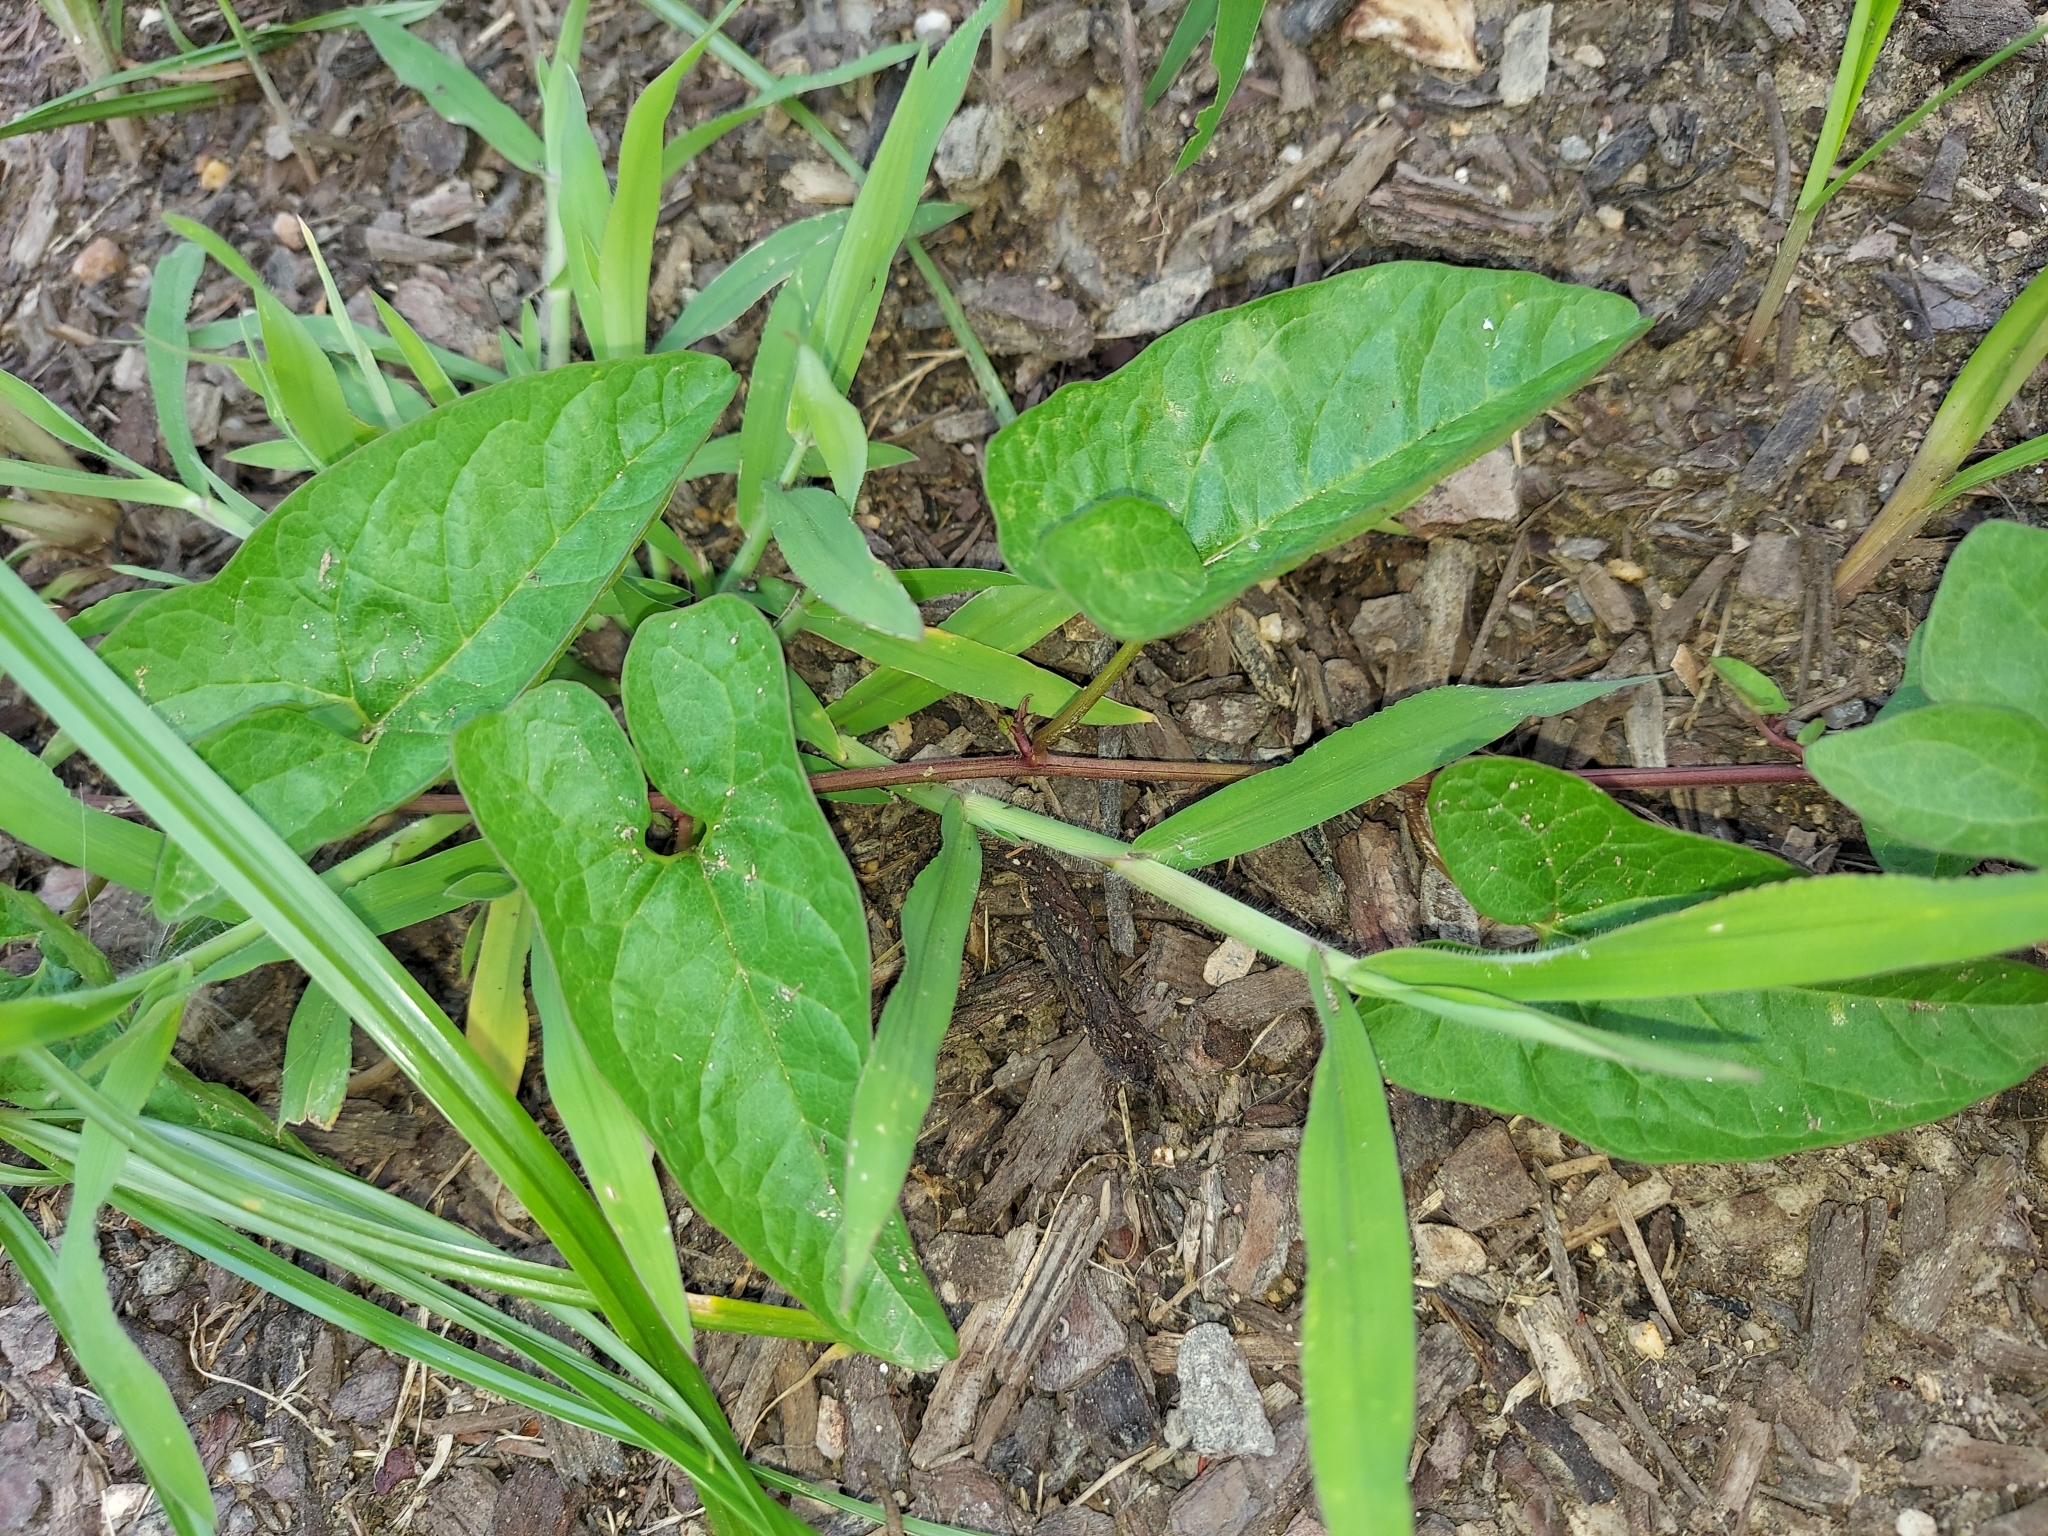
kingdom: Plantae
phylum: Tracheophyta
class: Magnoliopsida
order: Solanales
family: Convolvulaceae
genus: Calystegia
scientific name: Calystegia silvatica
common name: Large bindweed
